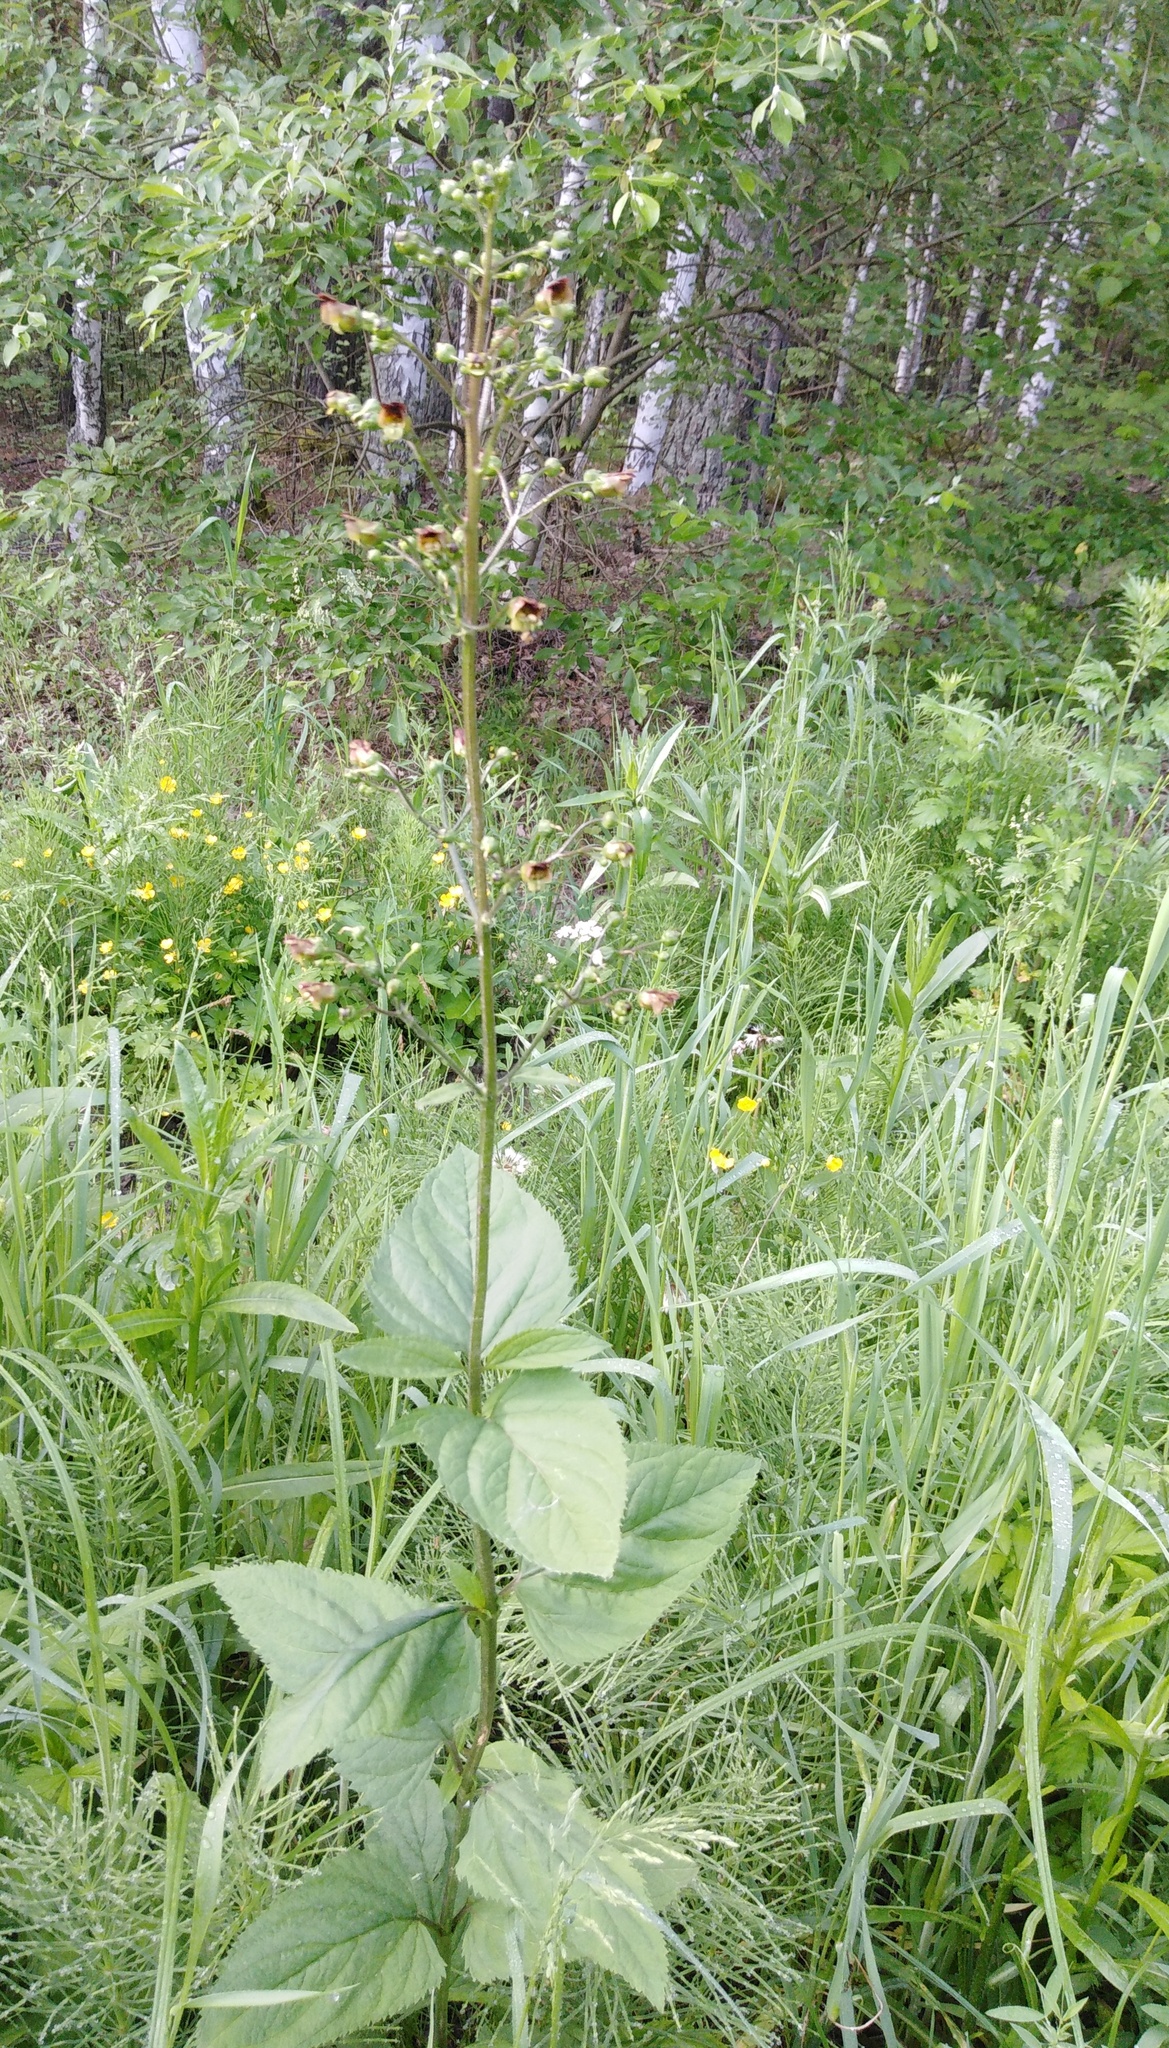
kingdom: Plantae
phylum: Tracheophyta
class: Magnoliopsida
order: Lamiales
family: Scrophulariaceae
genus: Scrophularia
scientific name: Scrophularia nodosa
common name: Common figwort
